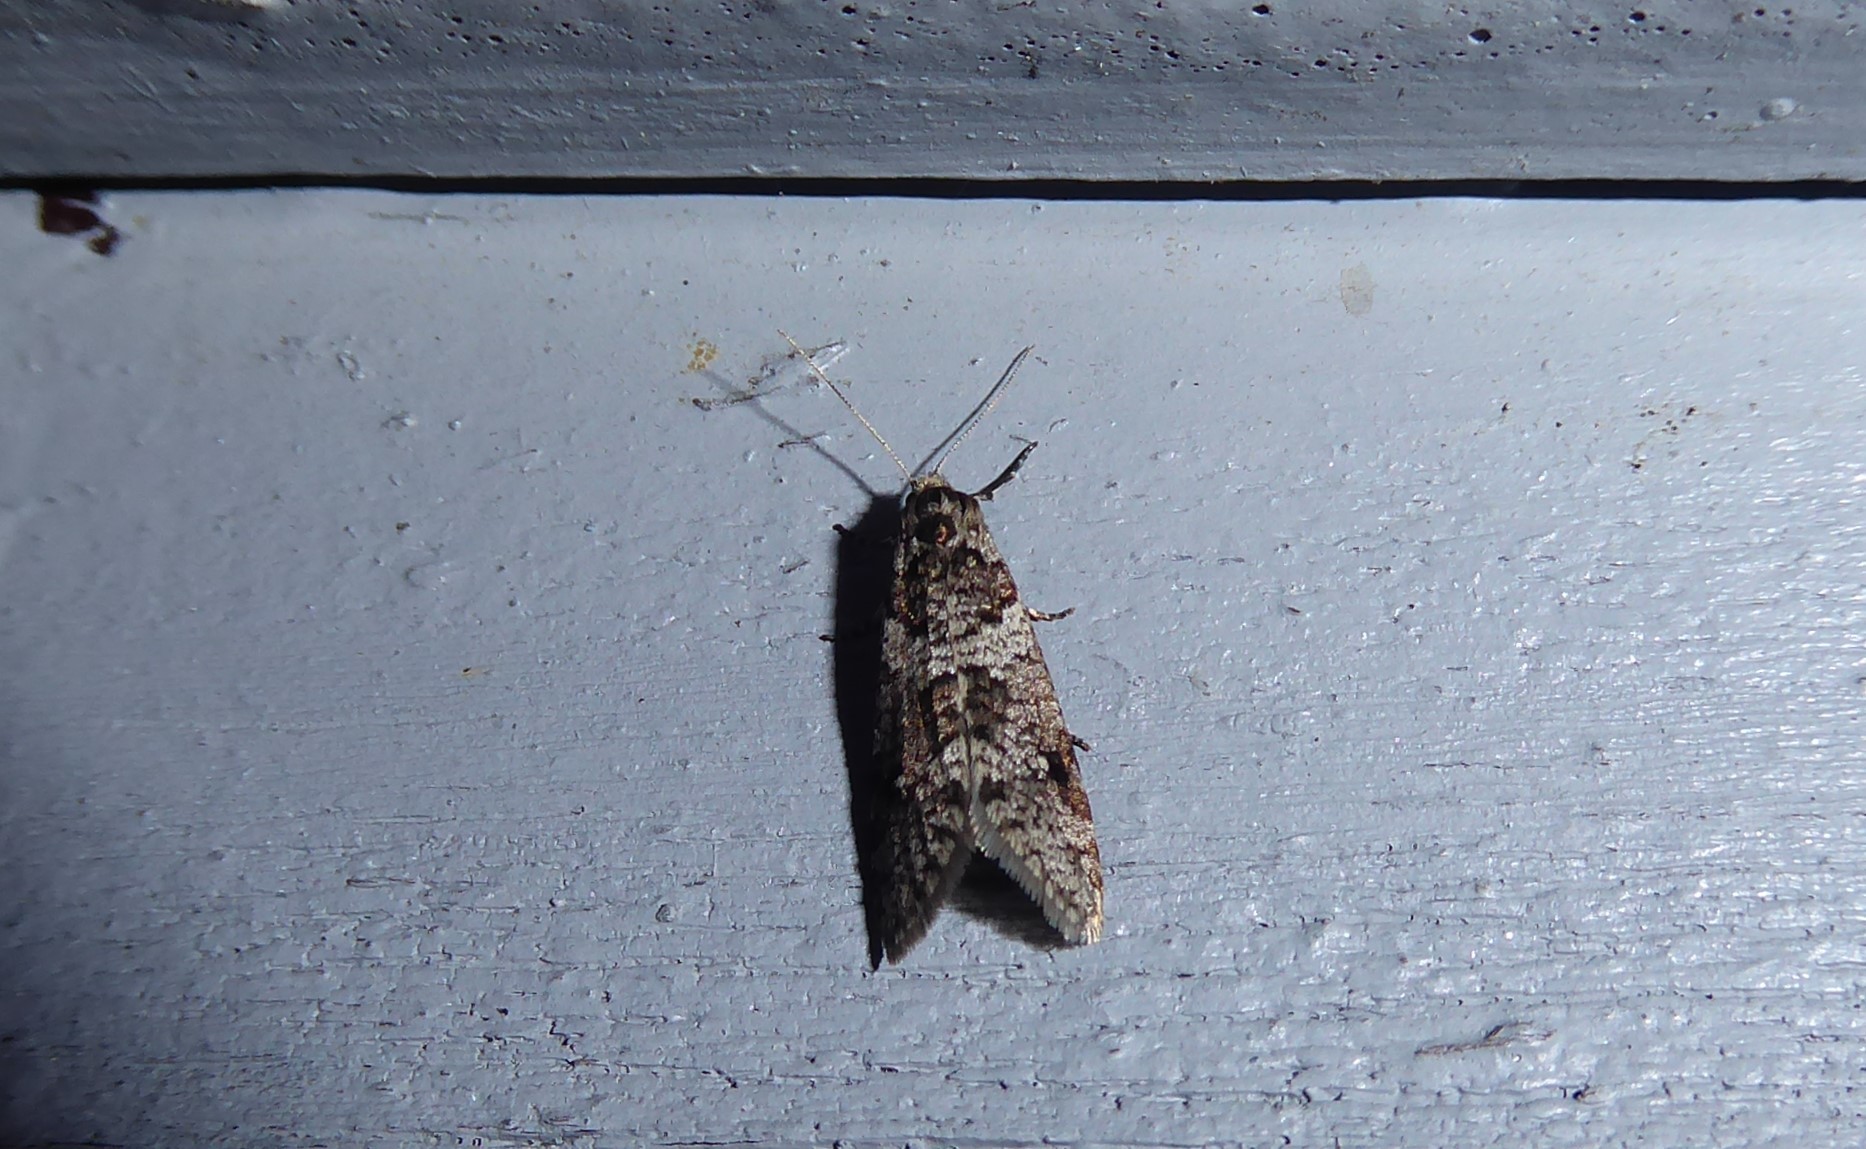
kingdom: Animalia
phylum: Arthropoda
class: Insecta
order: Lepidoptera
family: Psychidae
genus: Lepidoscia
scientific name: Lepidoscia heliochares
